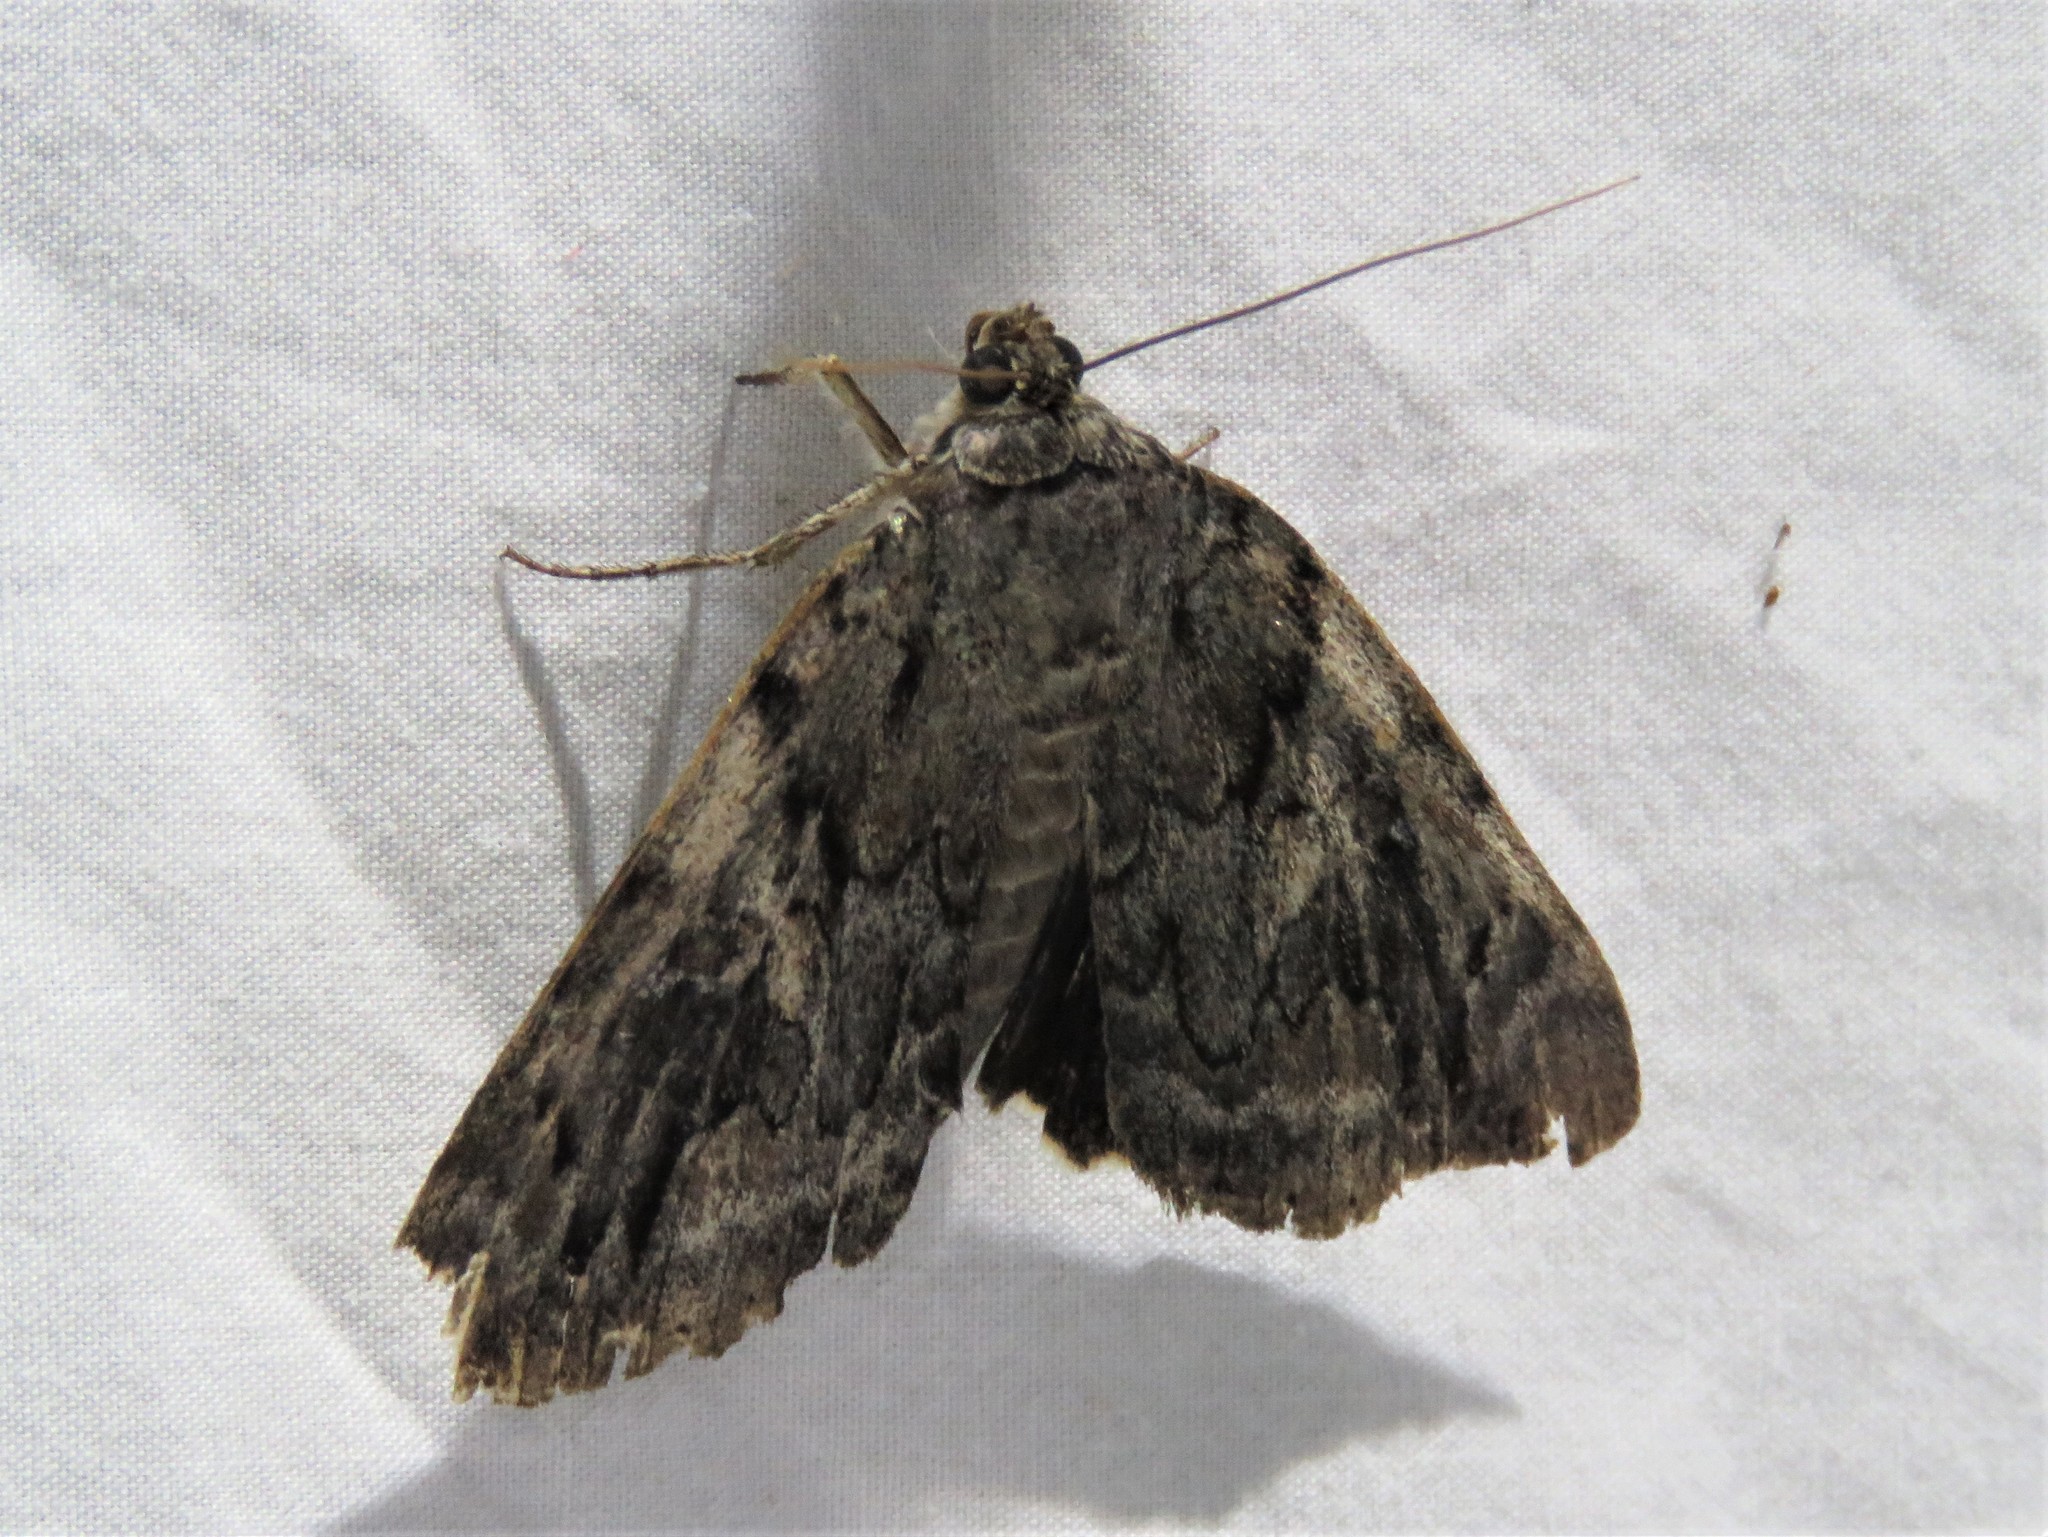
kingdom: Animalia
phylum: Arthropoda
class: Insecta
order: Lepidoptera
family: Erebidae
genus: Catocala
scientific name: Catocala agrippina
